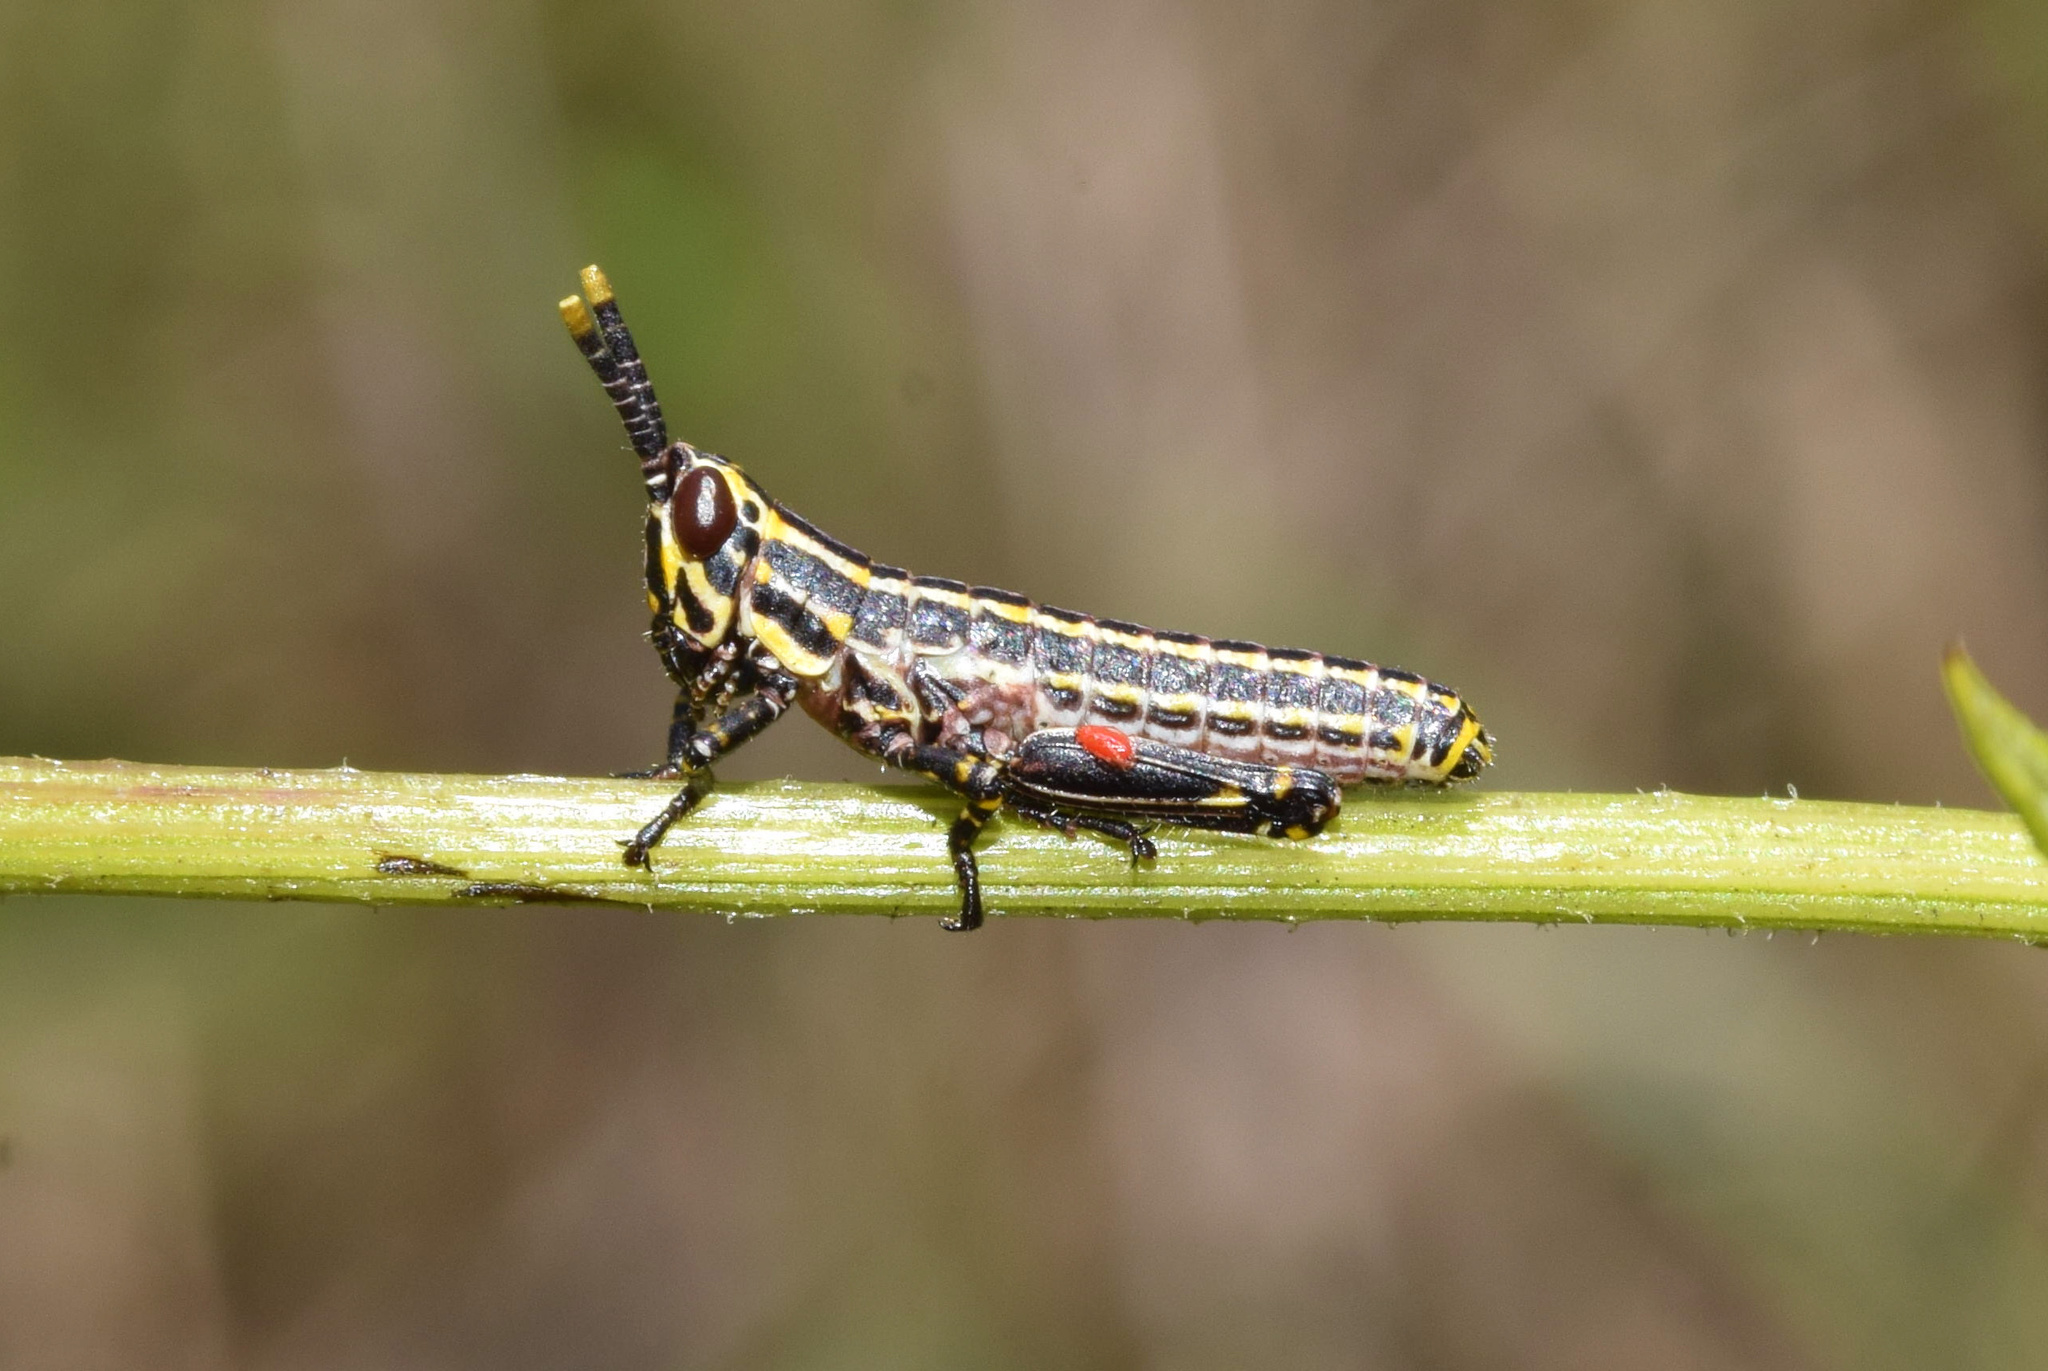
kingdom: Animalia
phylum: Arthropoda
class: Insecta
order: Orthoptera
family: Pyrgomorphidae
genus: Zonocerus
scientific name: Zonocerus elegans
